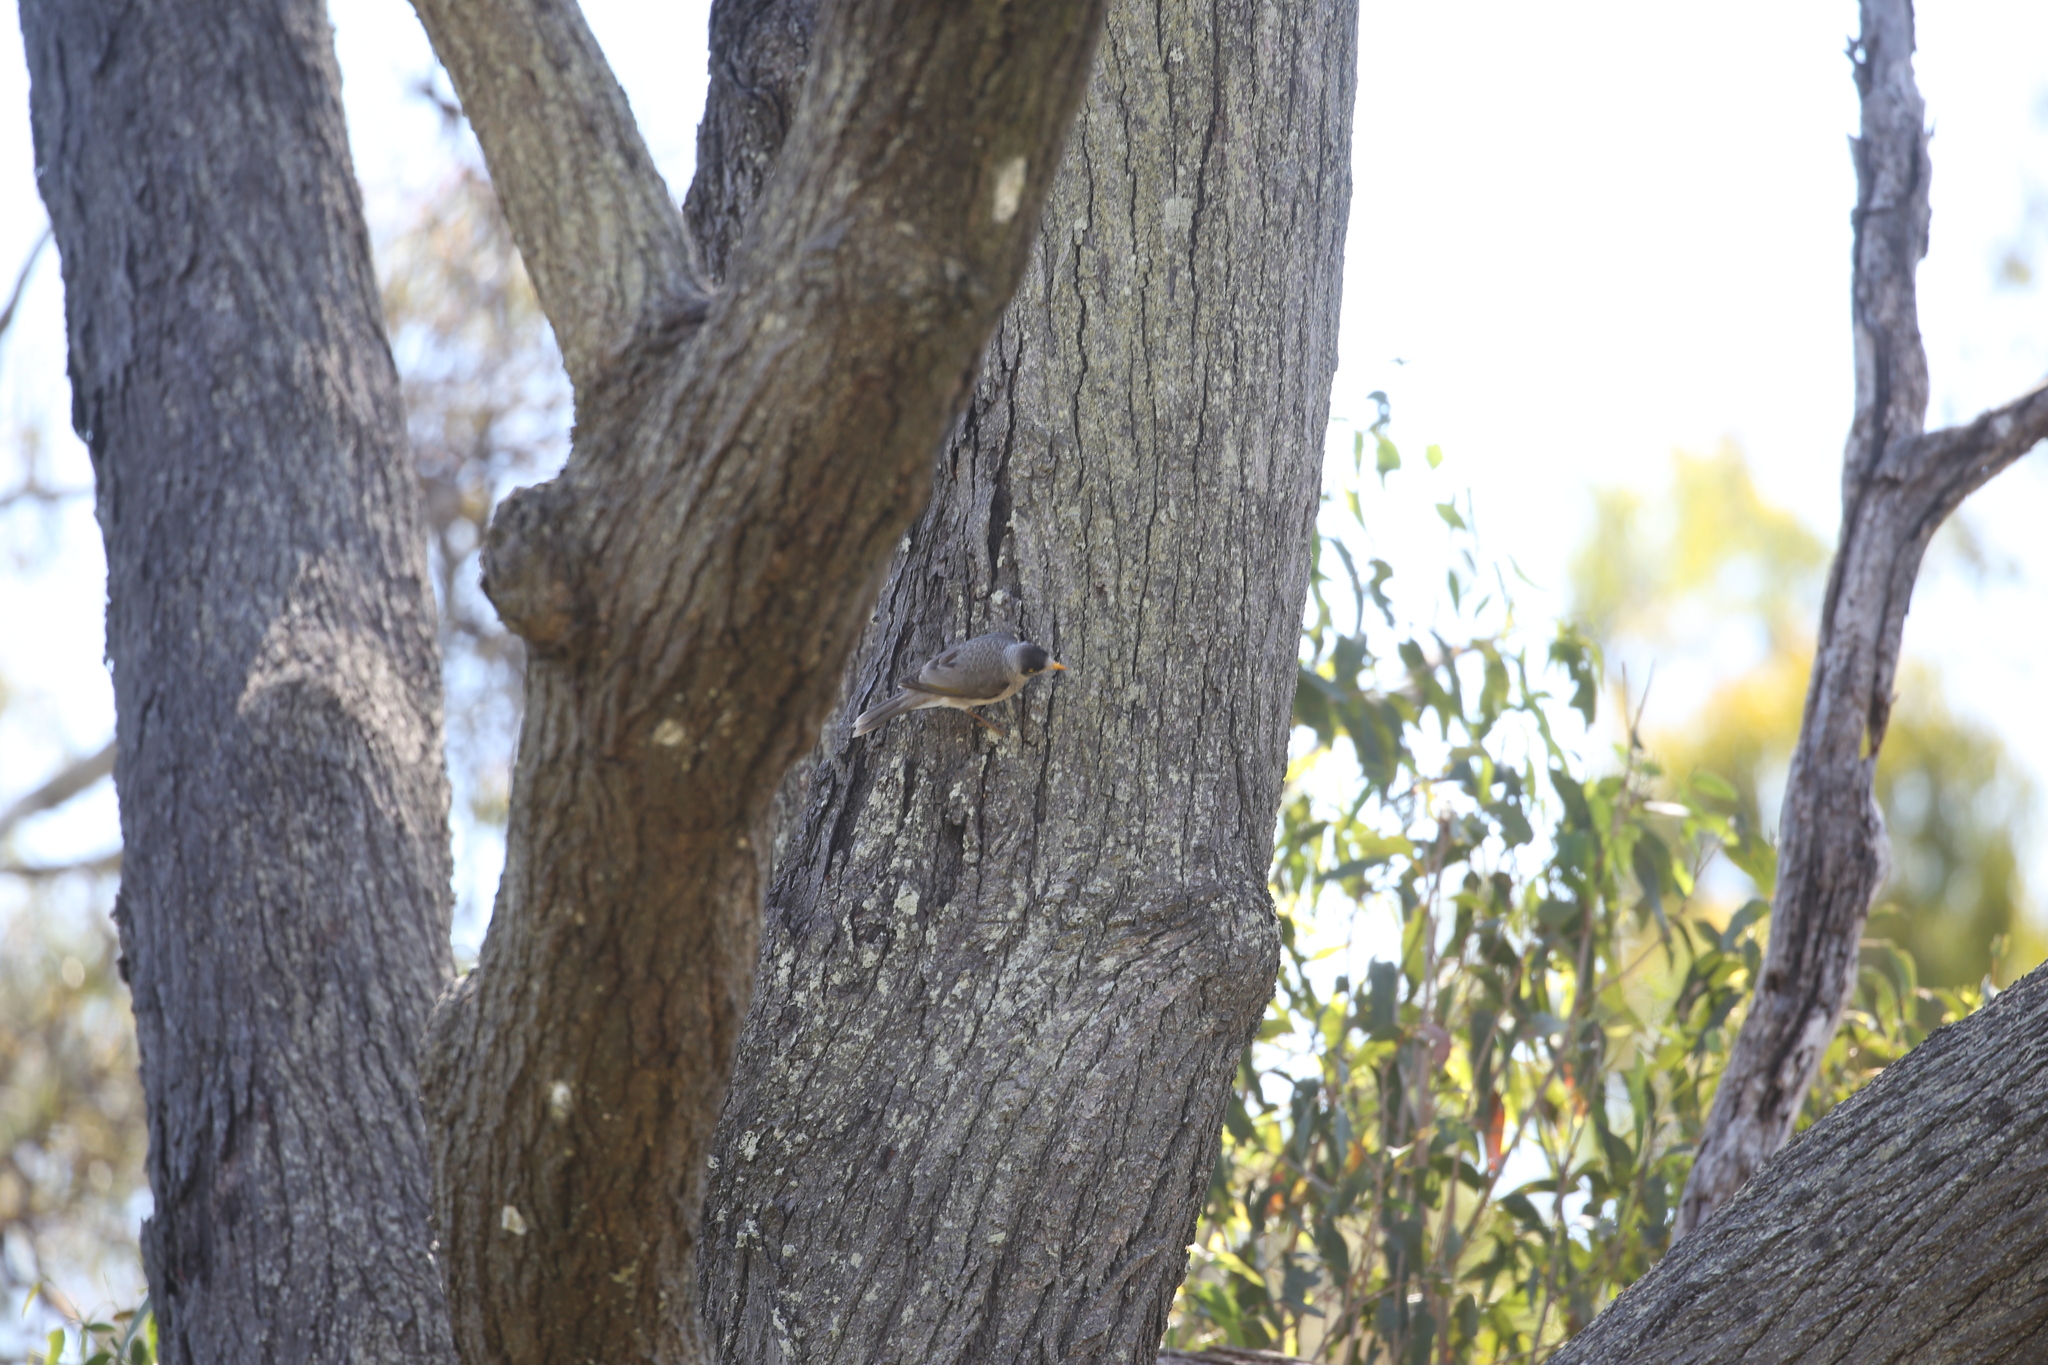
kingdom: Animalia
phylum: Chordata
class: Aves
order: Passeriformes
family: Meliphagidae
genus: Manorina
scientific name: Manorina melanocephala
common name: Noisy miner
